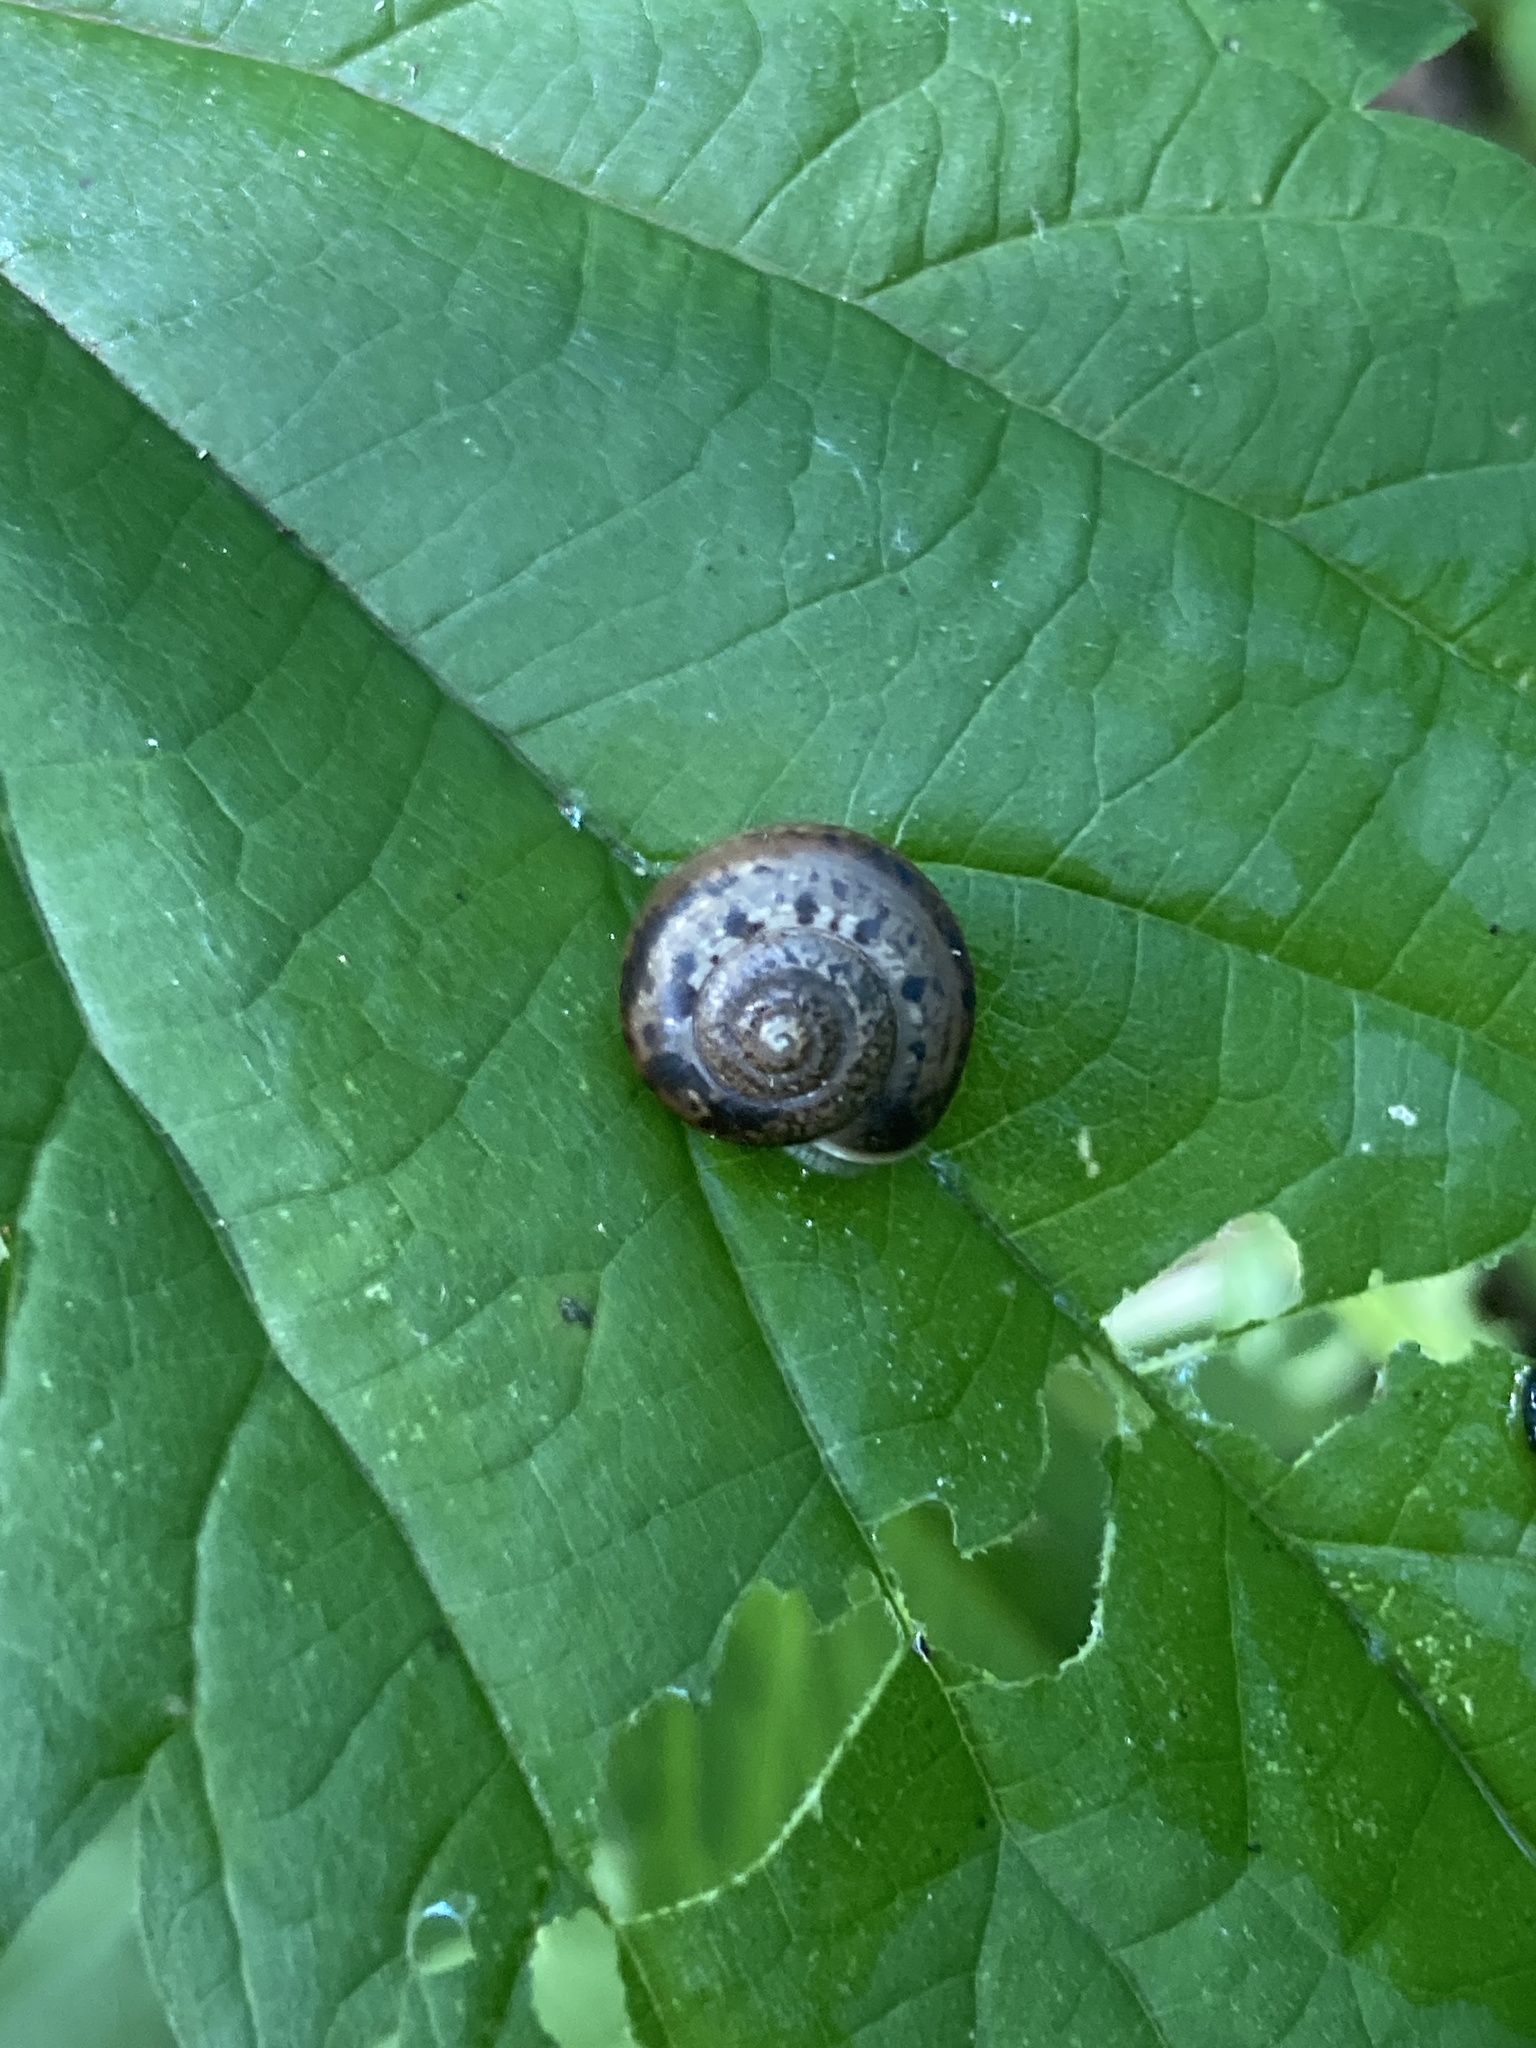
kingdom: Animalia
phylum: Mollusca
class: Gastropoda
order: Stylommatophora
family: Camaenidae
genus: Fruticicola
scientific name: Fruticicola fruticum
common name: Bush snail
